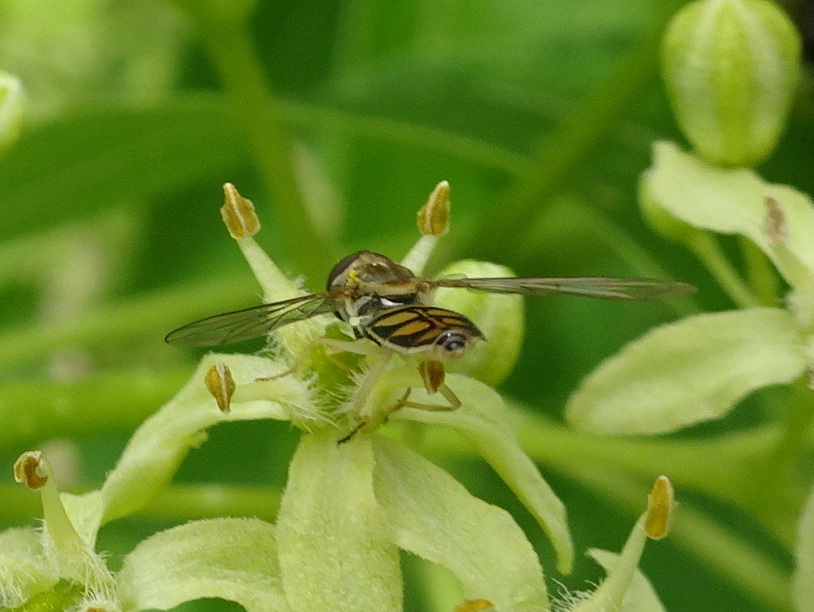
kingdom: Animalia
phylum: Arthropoda
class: Insecta
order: Diptera
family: Syrphidae
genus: Toxomerus
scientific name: Toxomerus marginatus
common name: Syrphid fly
